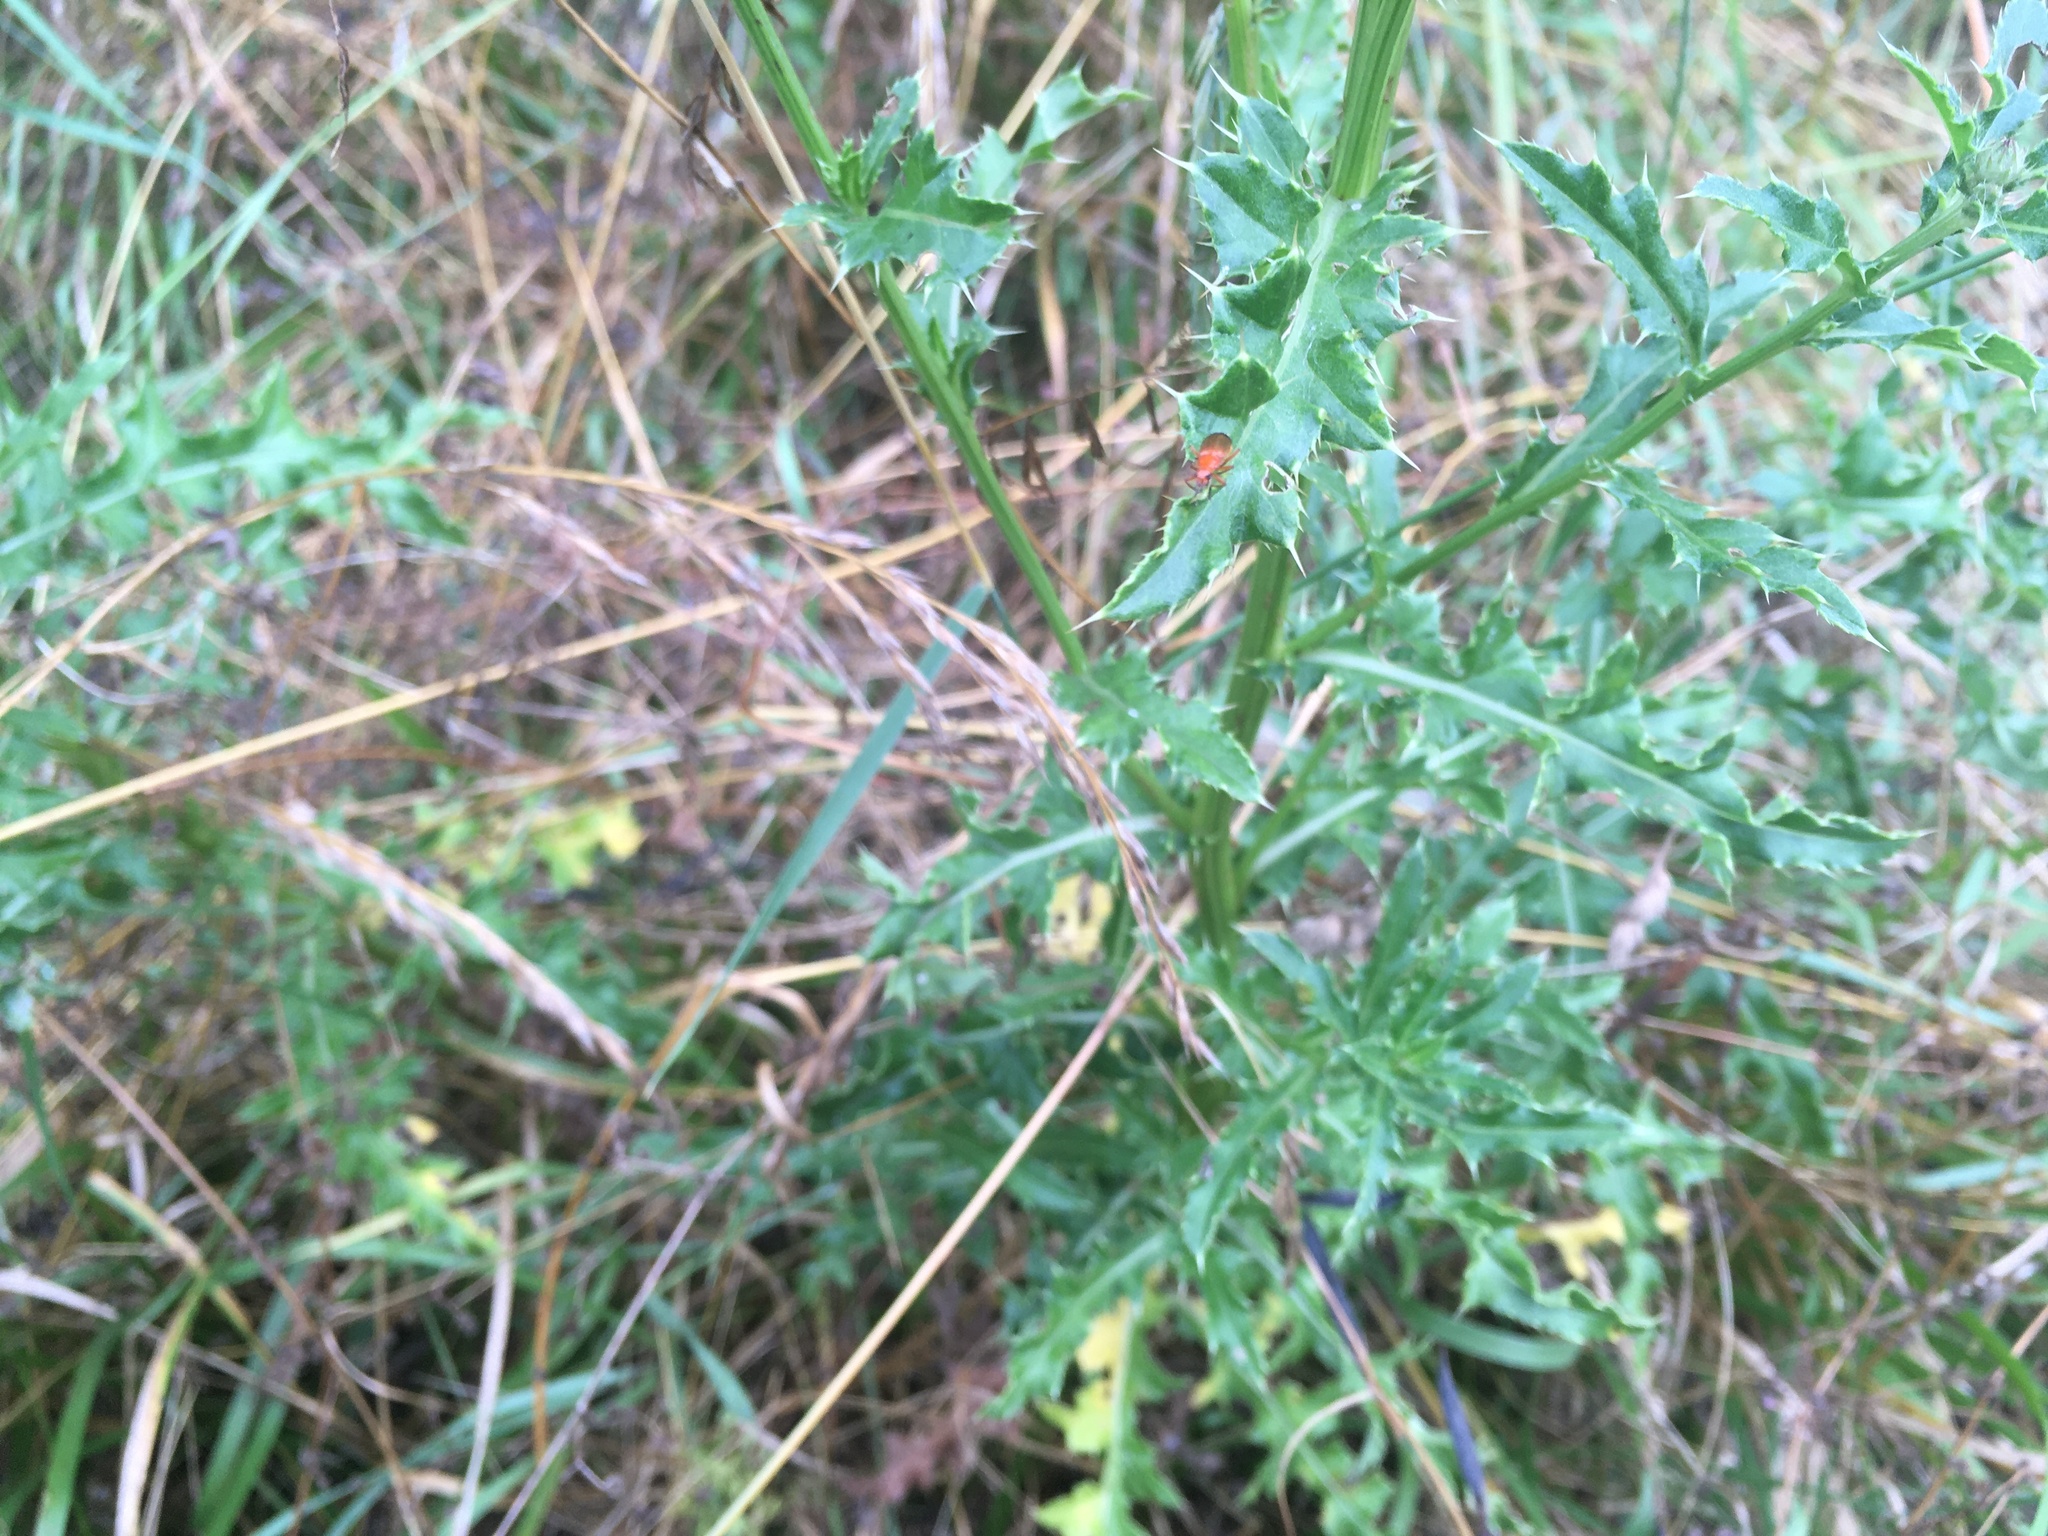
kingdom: Plantae
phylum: Tracheophyta
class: Magnoliopsida
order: Asterales
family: Asteraceae
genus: Cirsium
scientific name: Cirsium arvense
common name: Creeping thistle
